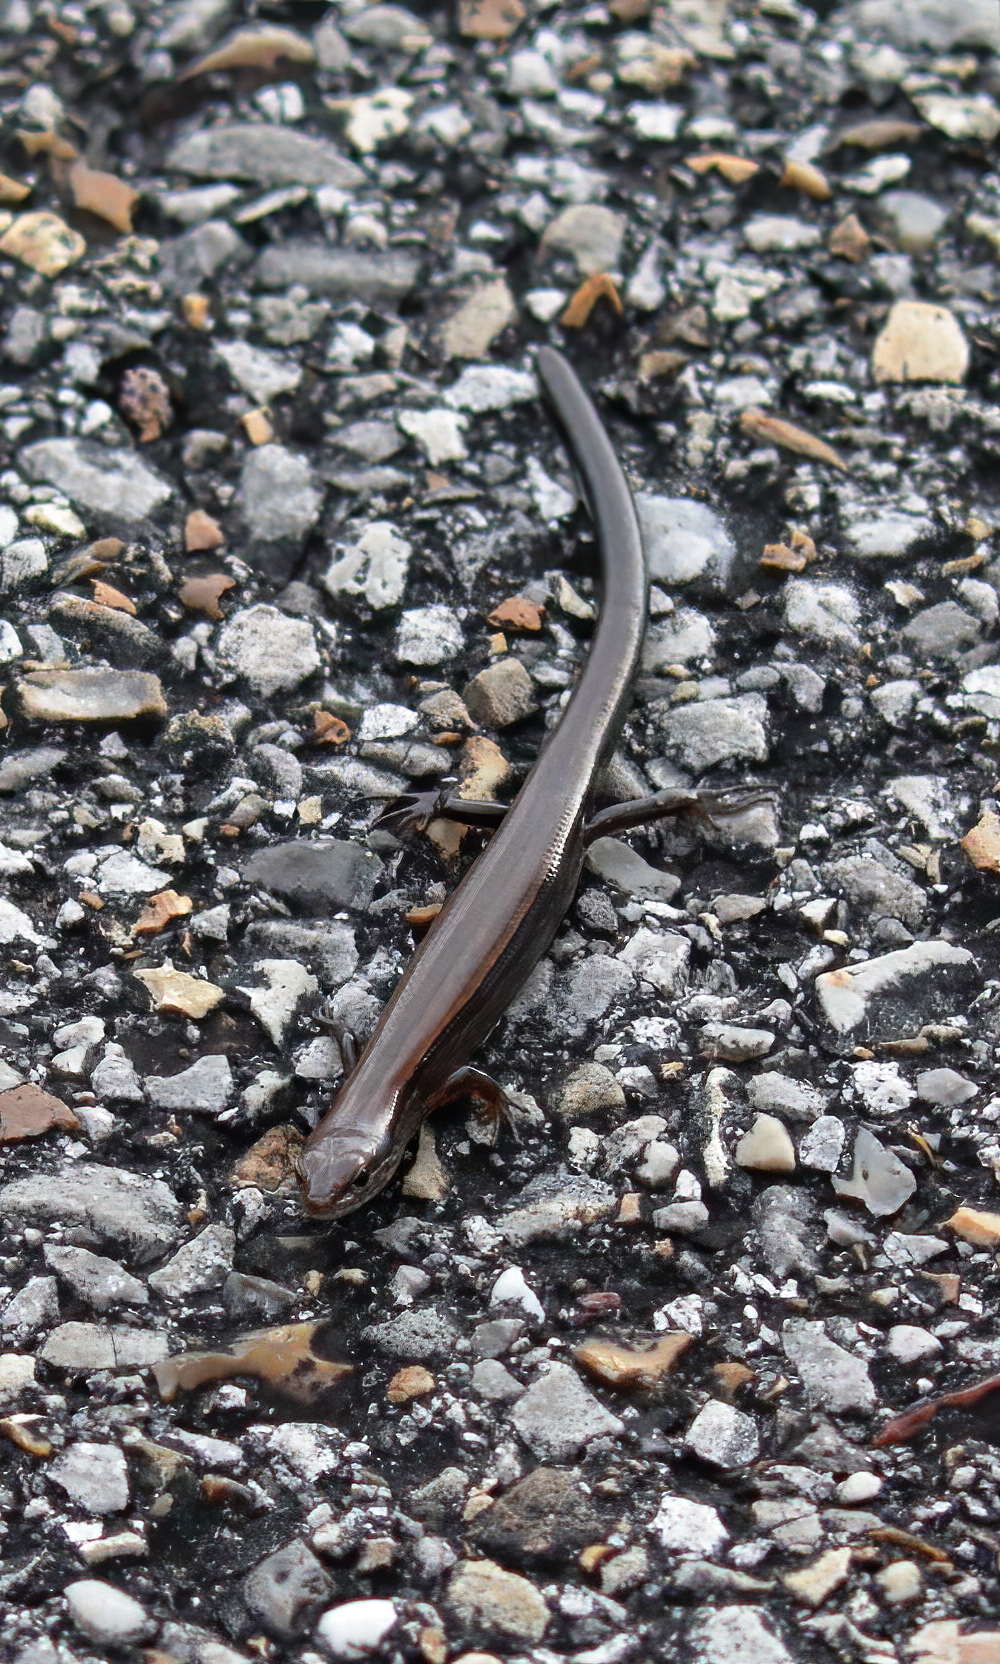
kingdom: Animalia
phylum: Chordata
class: Squamata
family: Scincidae
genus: Scincella
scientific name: Scincella lateralis
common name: Ground skink
